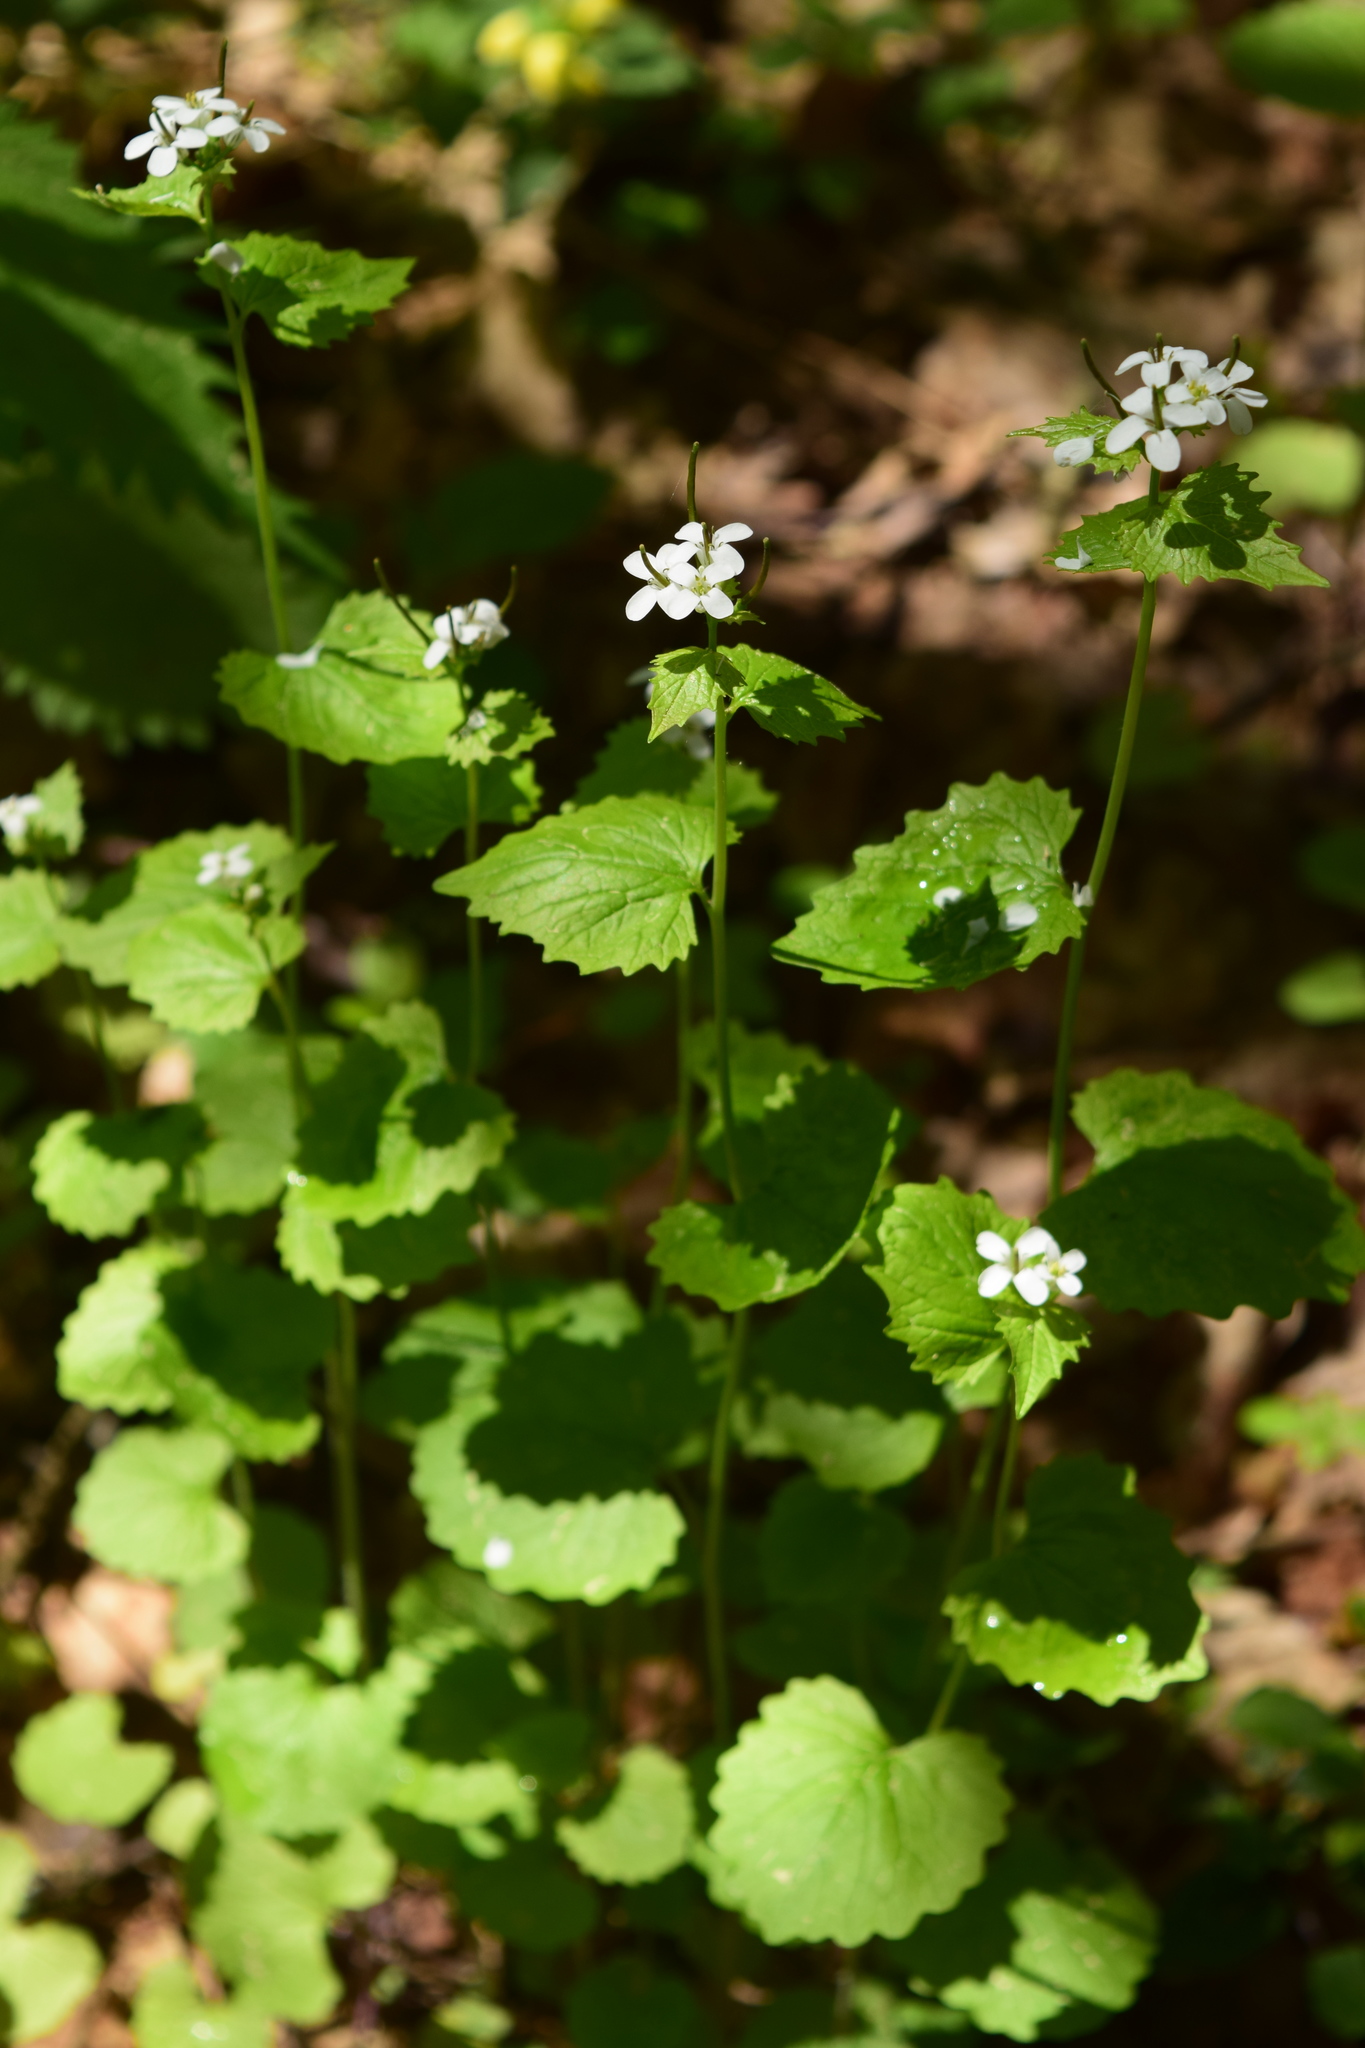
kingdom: Plantae
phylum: Tracheophyta
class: Magnoliopsida
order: Brassicales
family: Brassicaceae
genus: Alliaria
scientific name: Alliaria petiolata
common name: Garlic mustard
